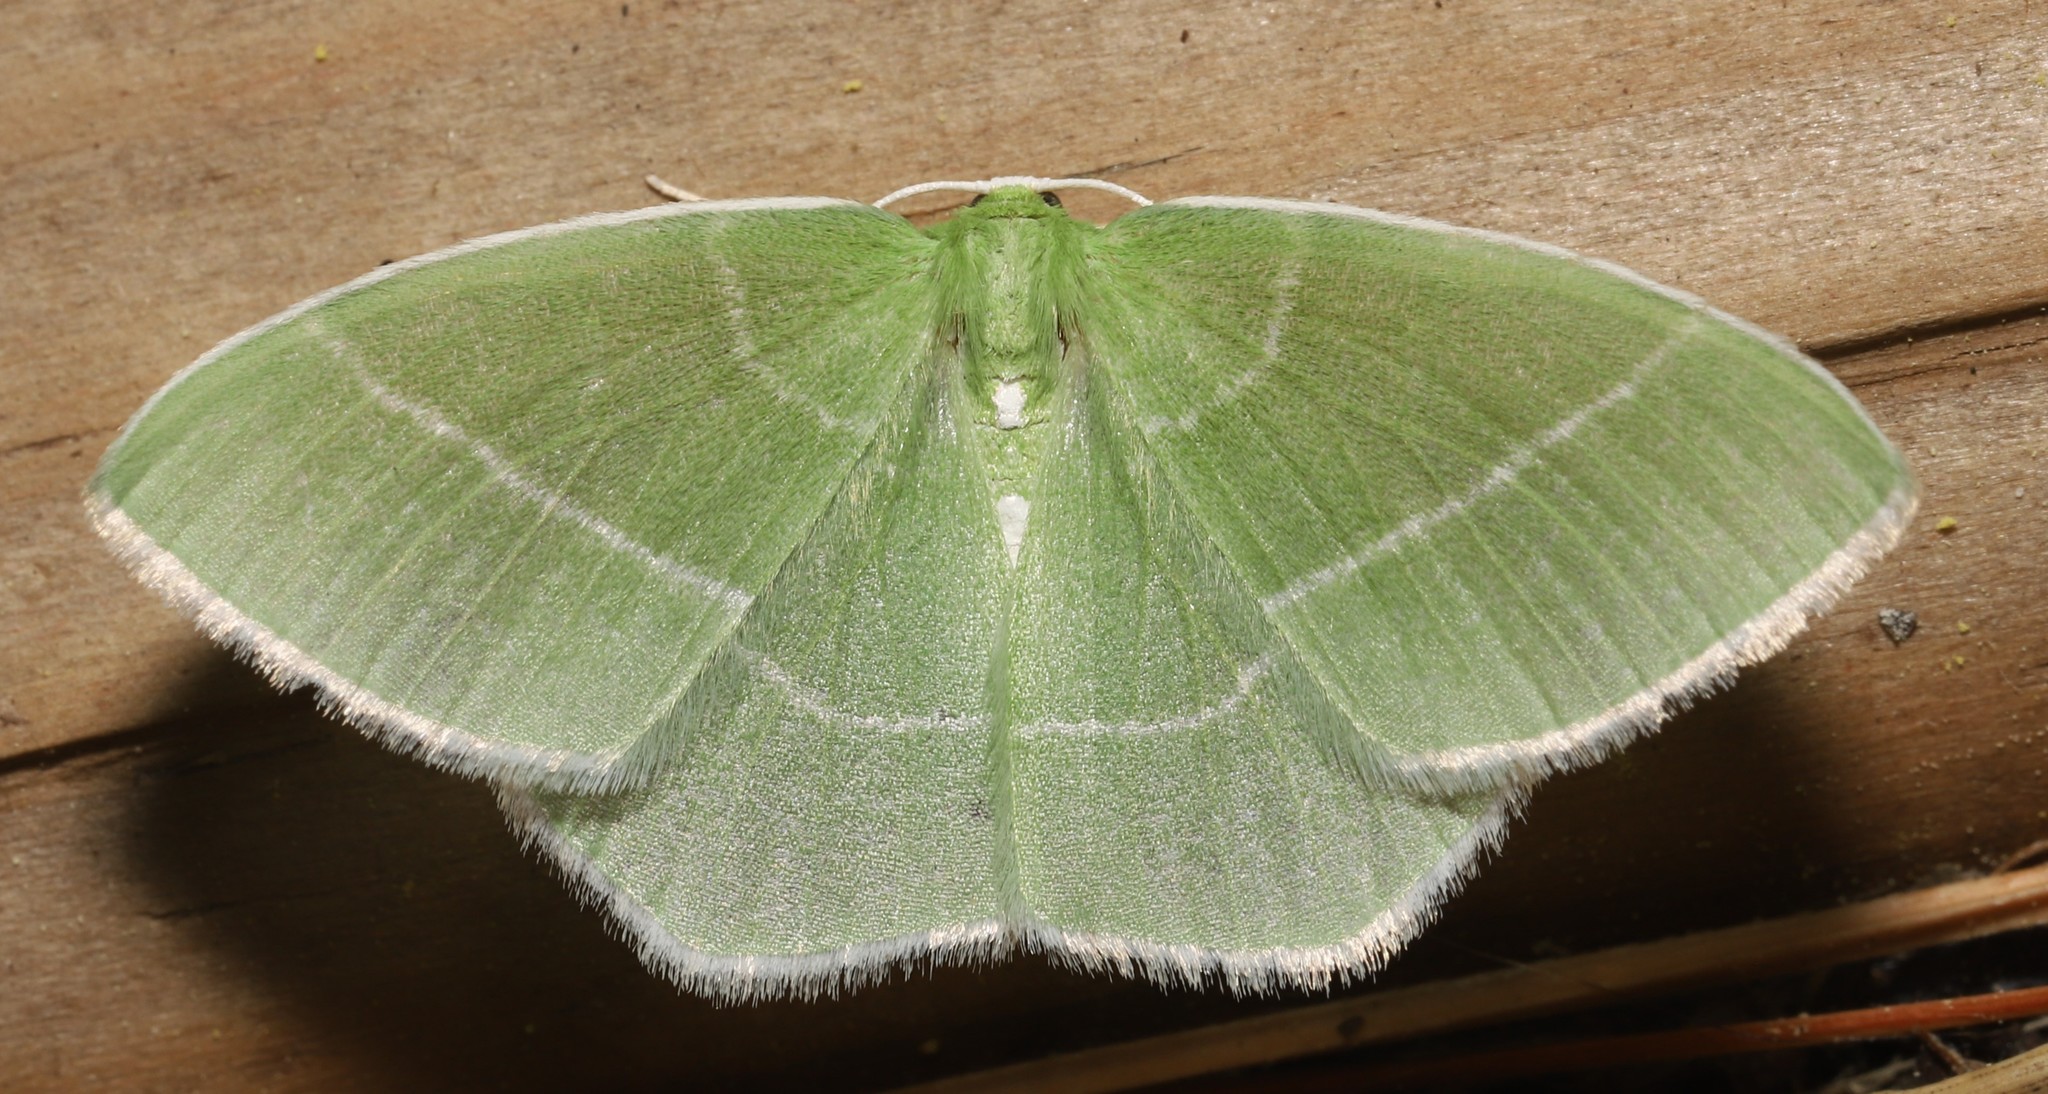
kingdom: Animalia
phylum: Arthropoda
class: Insecta
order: Lepidoptera
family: Geometridae
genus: Nemoria
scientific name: Nemoria mimosaria
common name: White-fringed emerald
